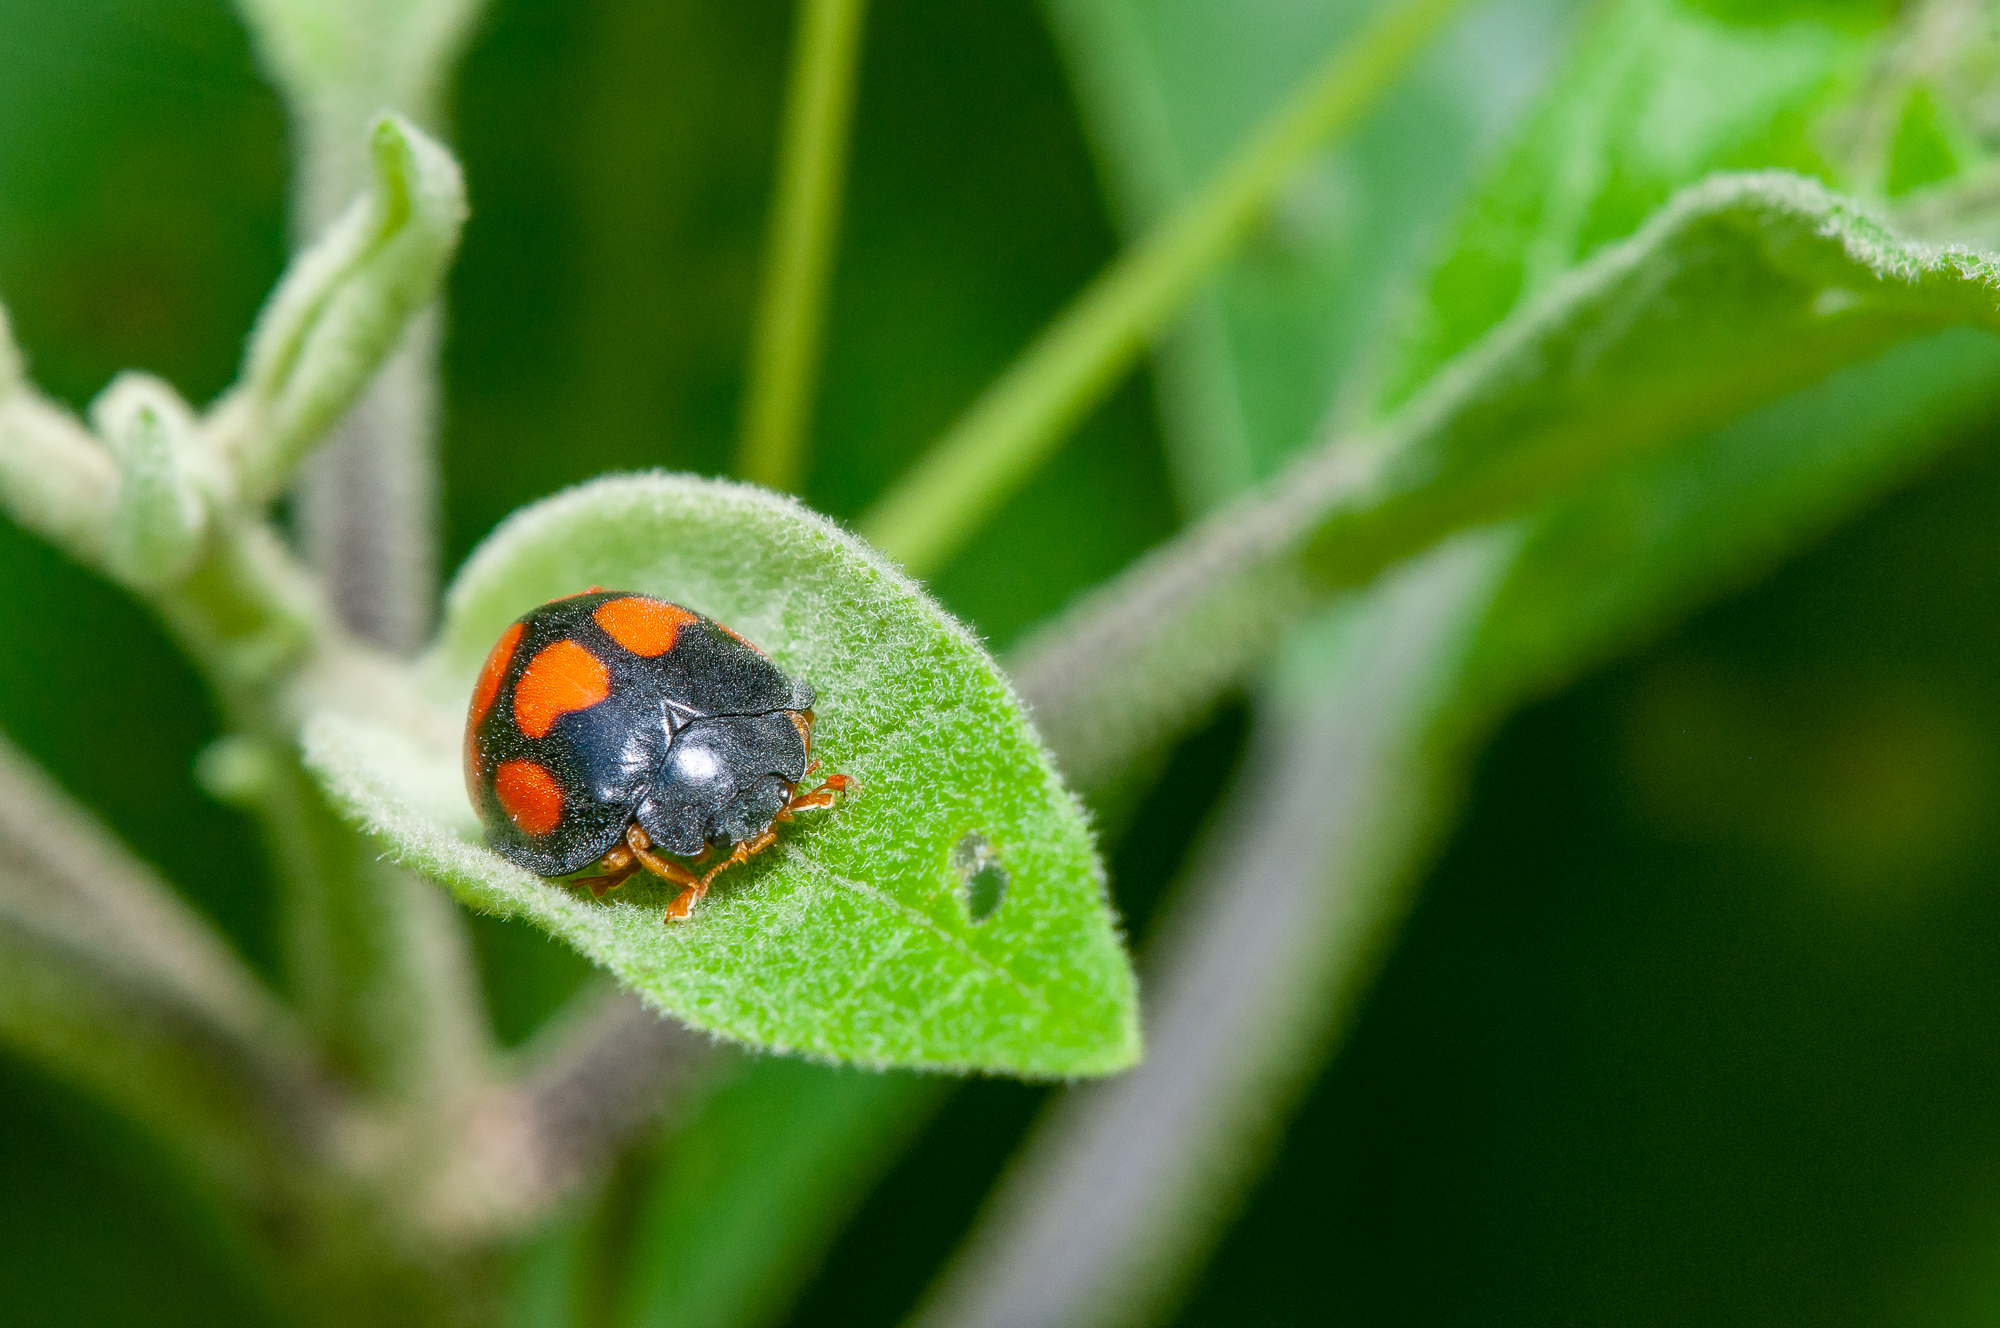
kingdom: Animalia
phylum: Arthropoda
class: Insecta
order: Coleoptera
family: Coccinellidae
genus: Epilachna
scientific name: Epilachna
